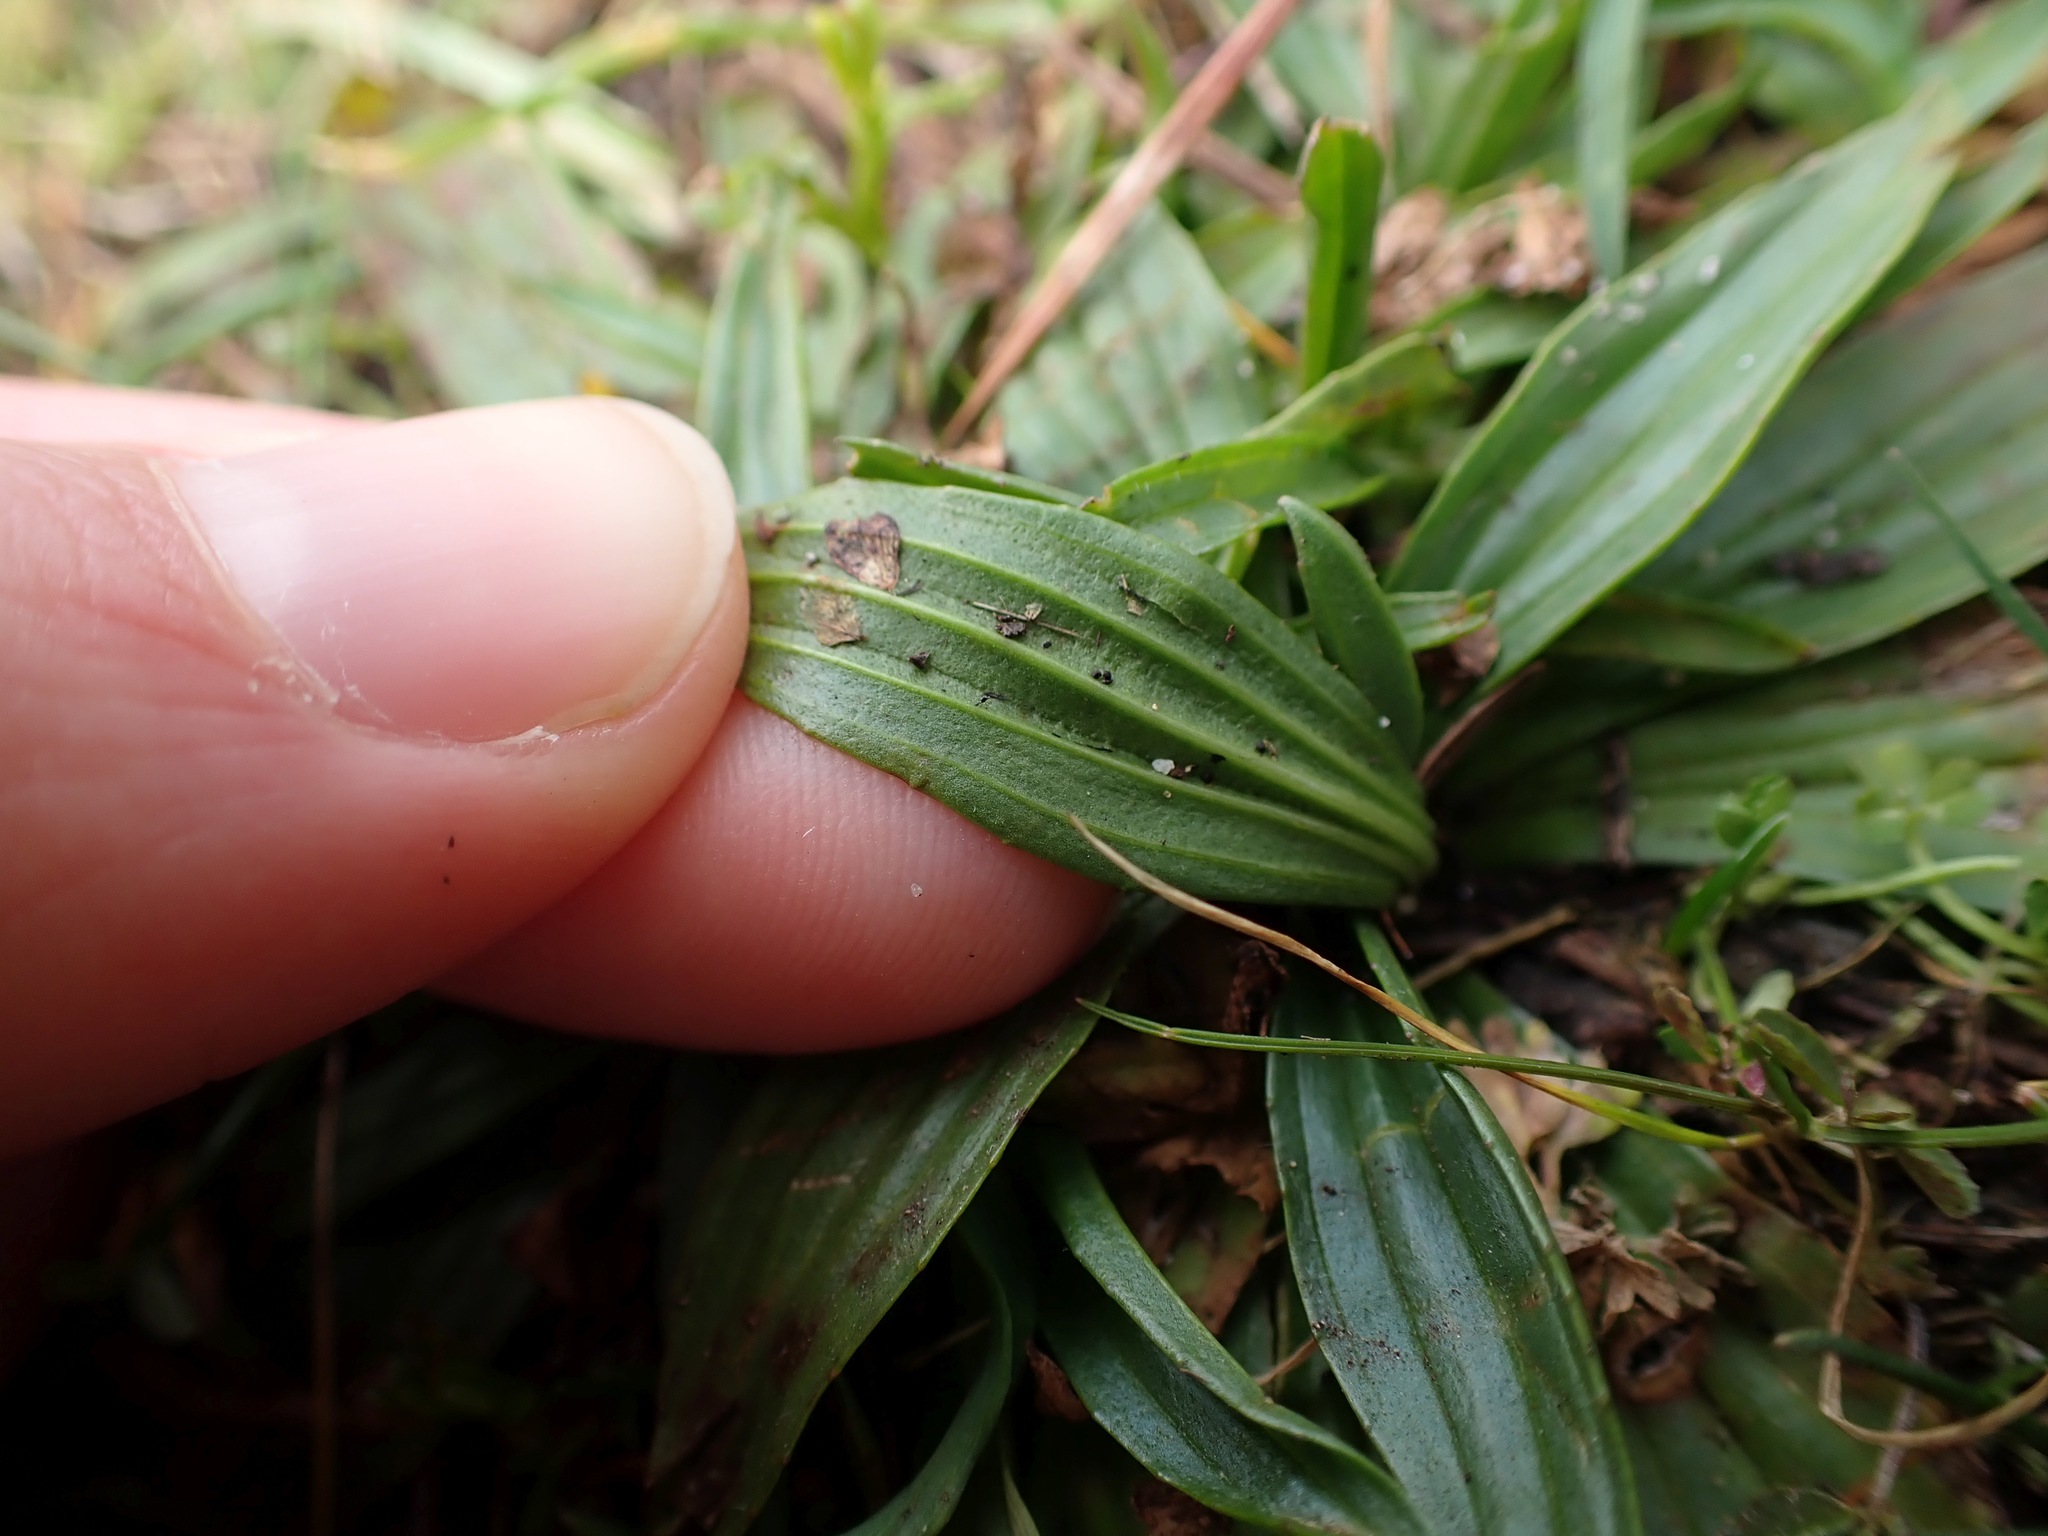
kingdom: Plantae
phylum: Tracheophyta
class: Magnoliopsida
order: Lamiales
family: Plantaginaceae
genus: Plantago
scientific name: Plantago lanceolata
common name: Ribwort plantain
